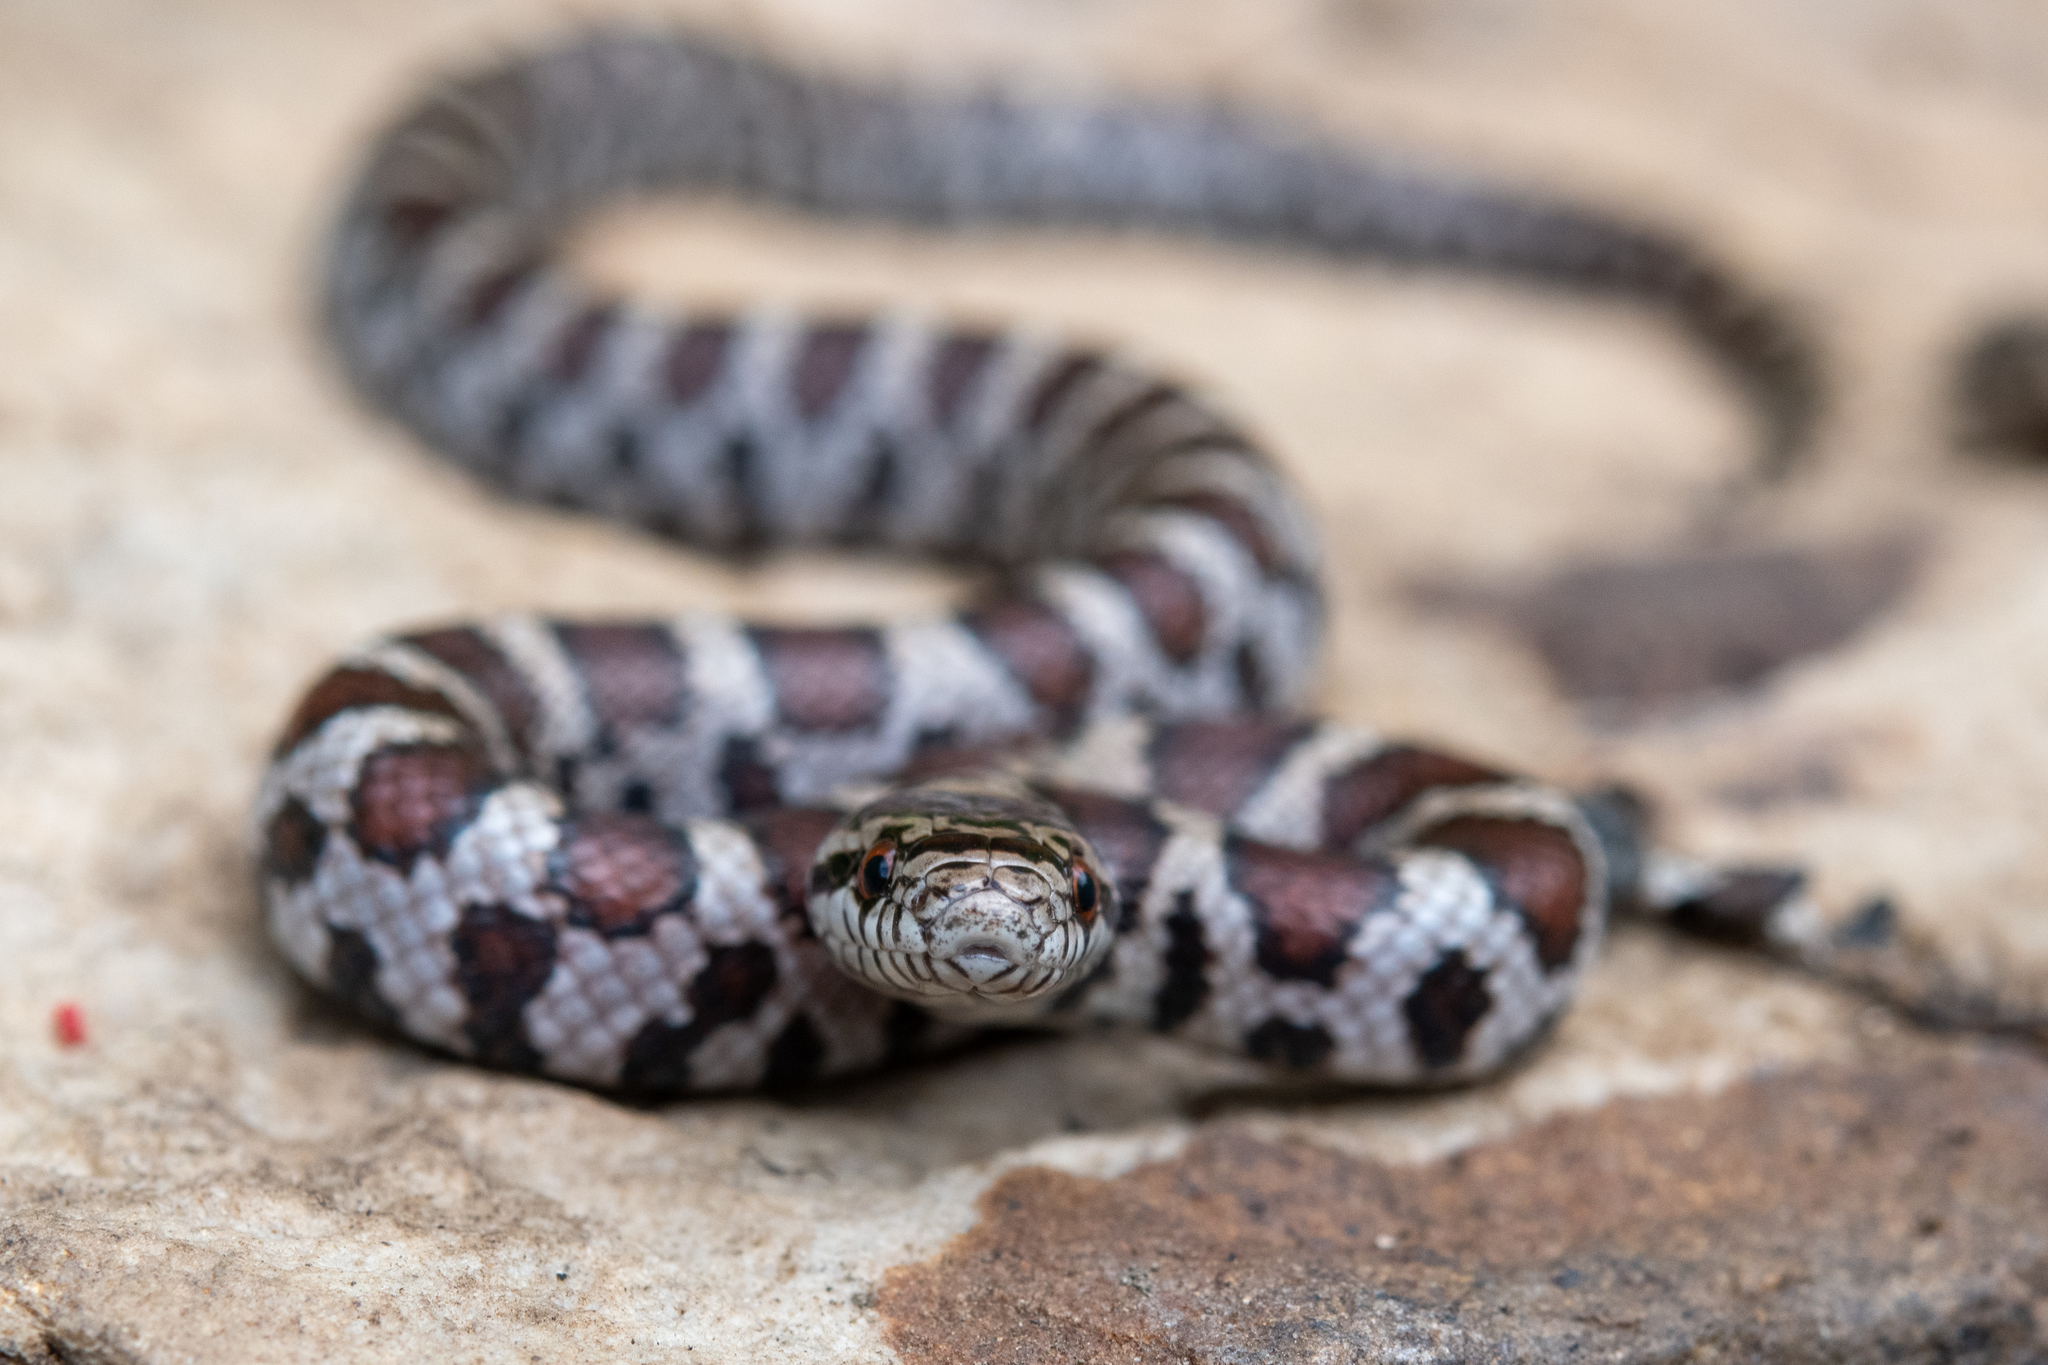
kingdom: Animalia
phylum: Chordata
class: Squamata
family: Colubridae
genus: Lampropeltis
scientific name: Lampropeltis triangulum
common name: Eastern milksnake
